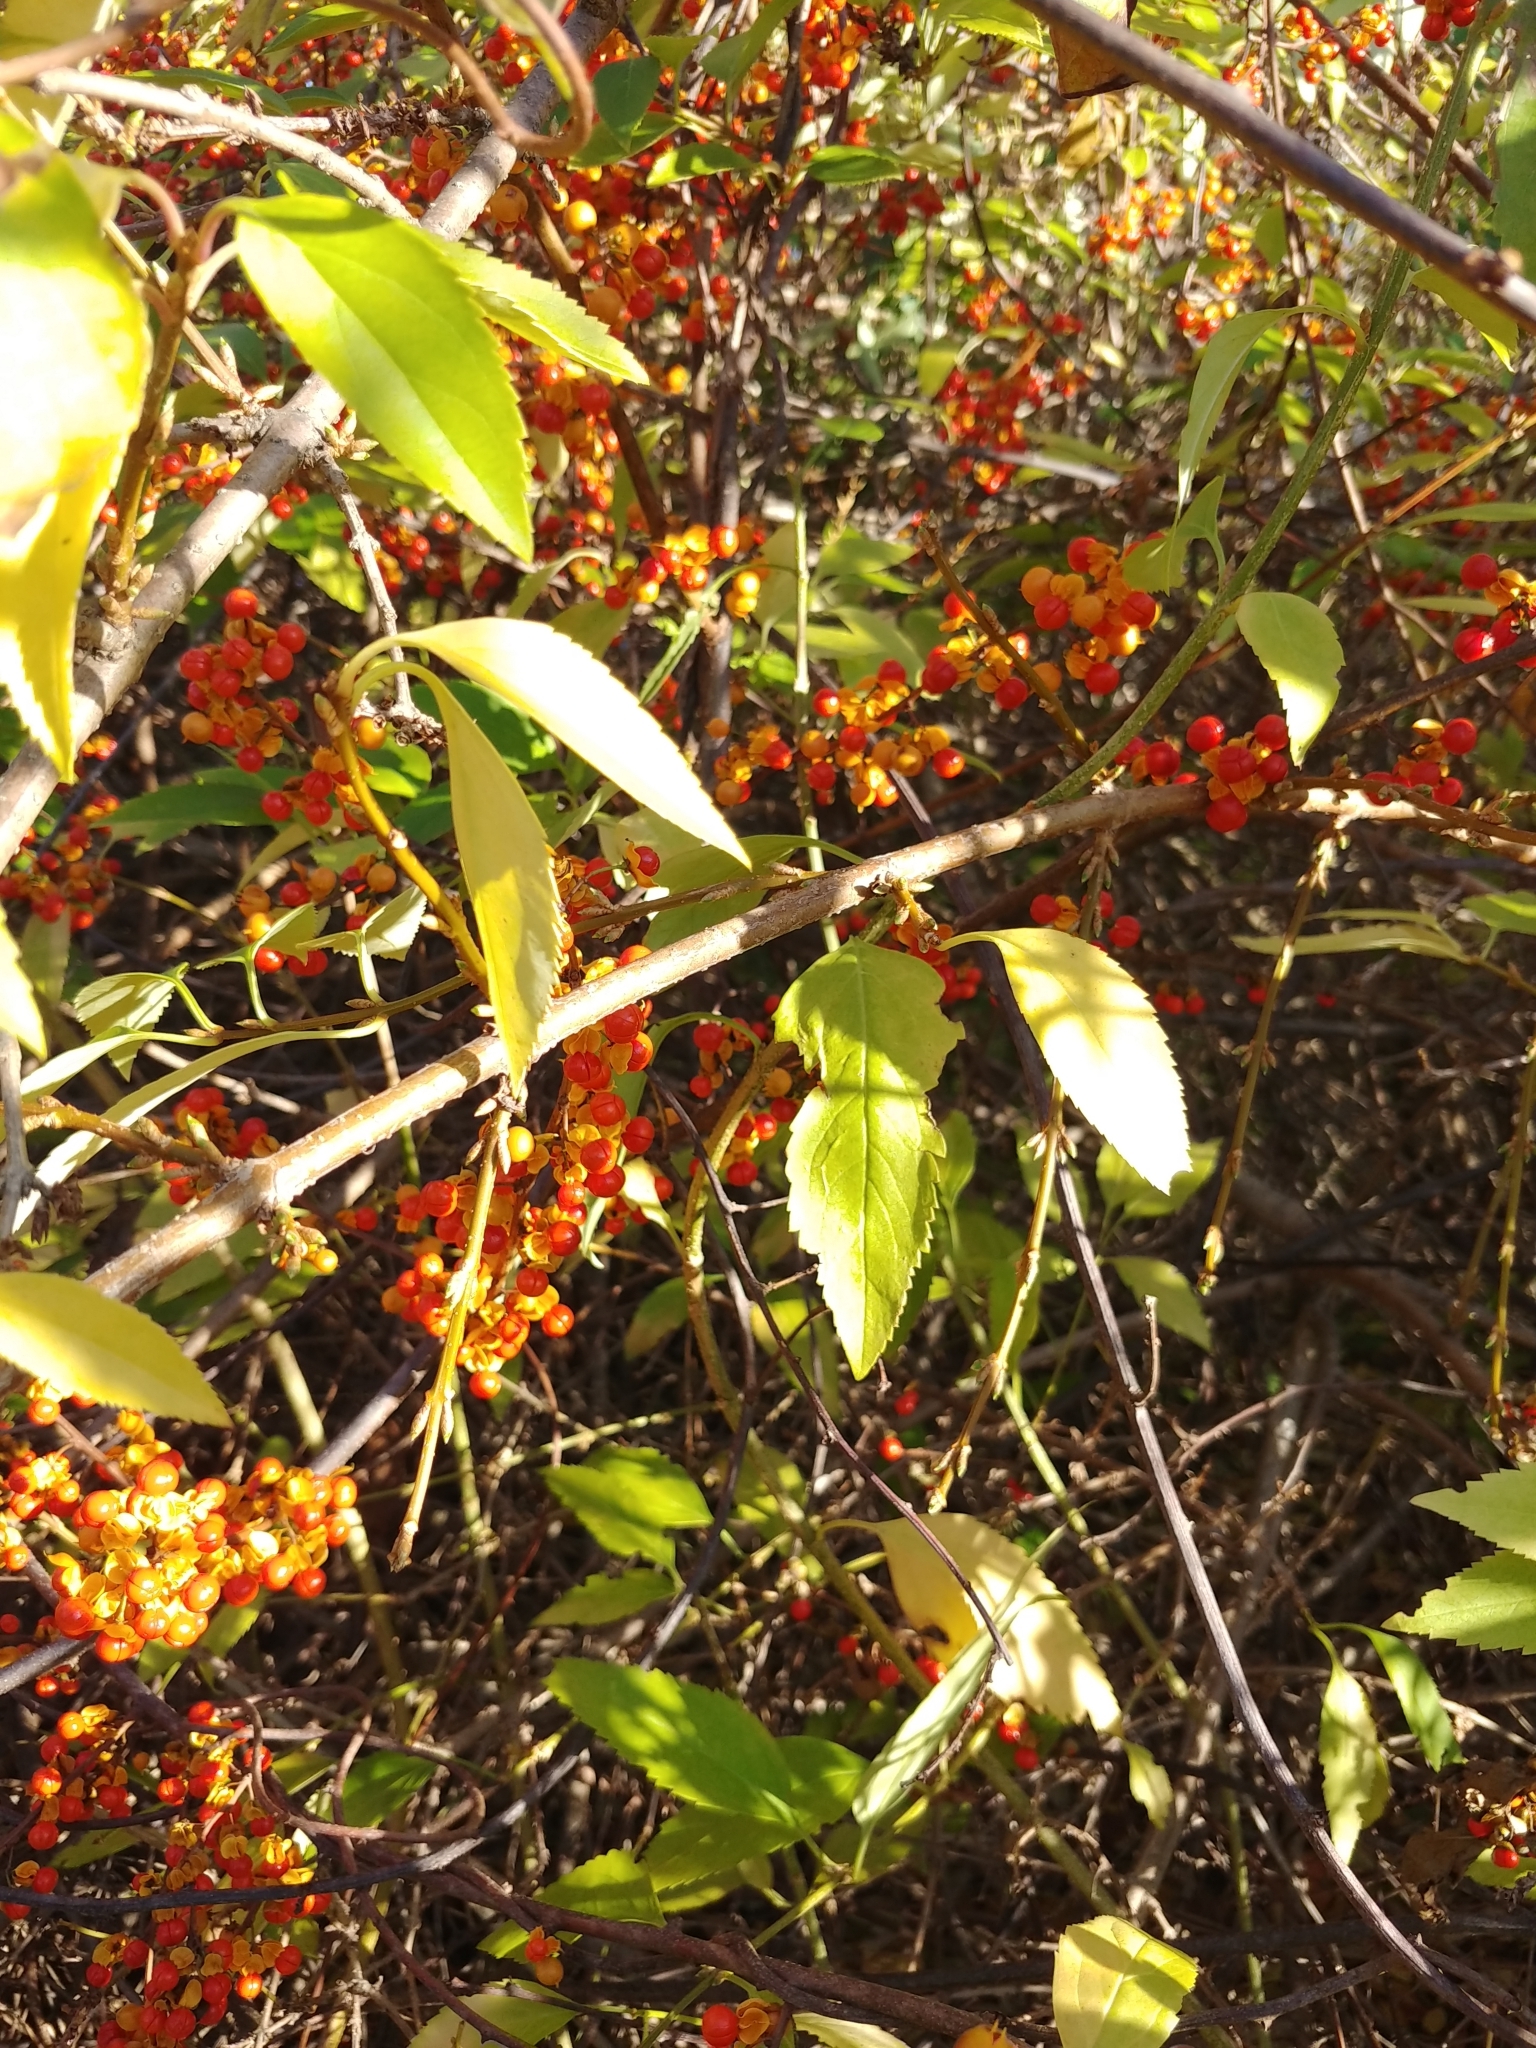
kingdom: Plantae
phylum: Tracheophyta
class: Magnoliopsida
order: Celastrales
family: Celastraceae
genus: Celastrus
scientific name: Celastrus orbiculatus
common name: Oriental bittersweet
